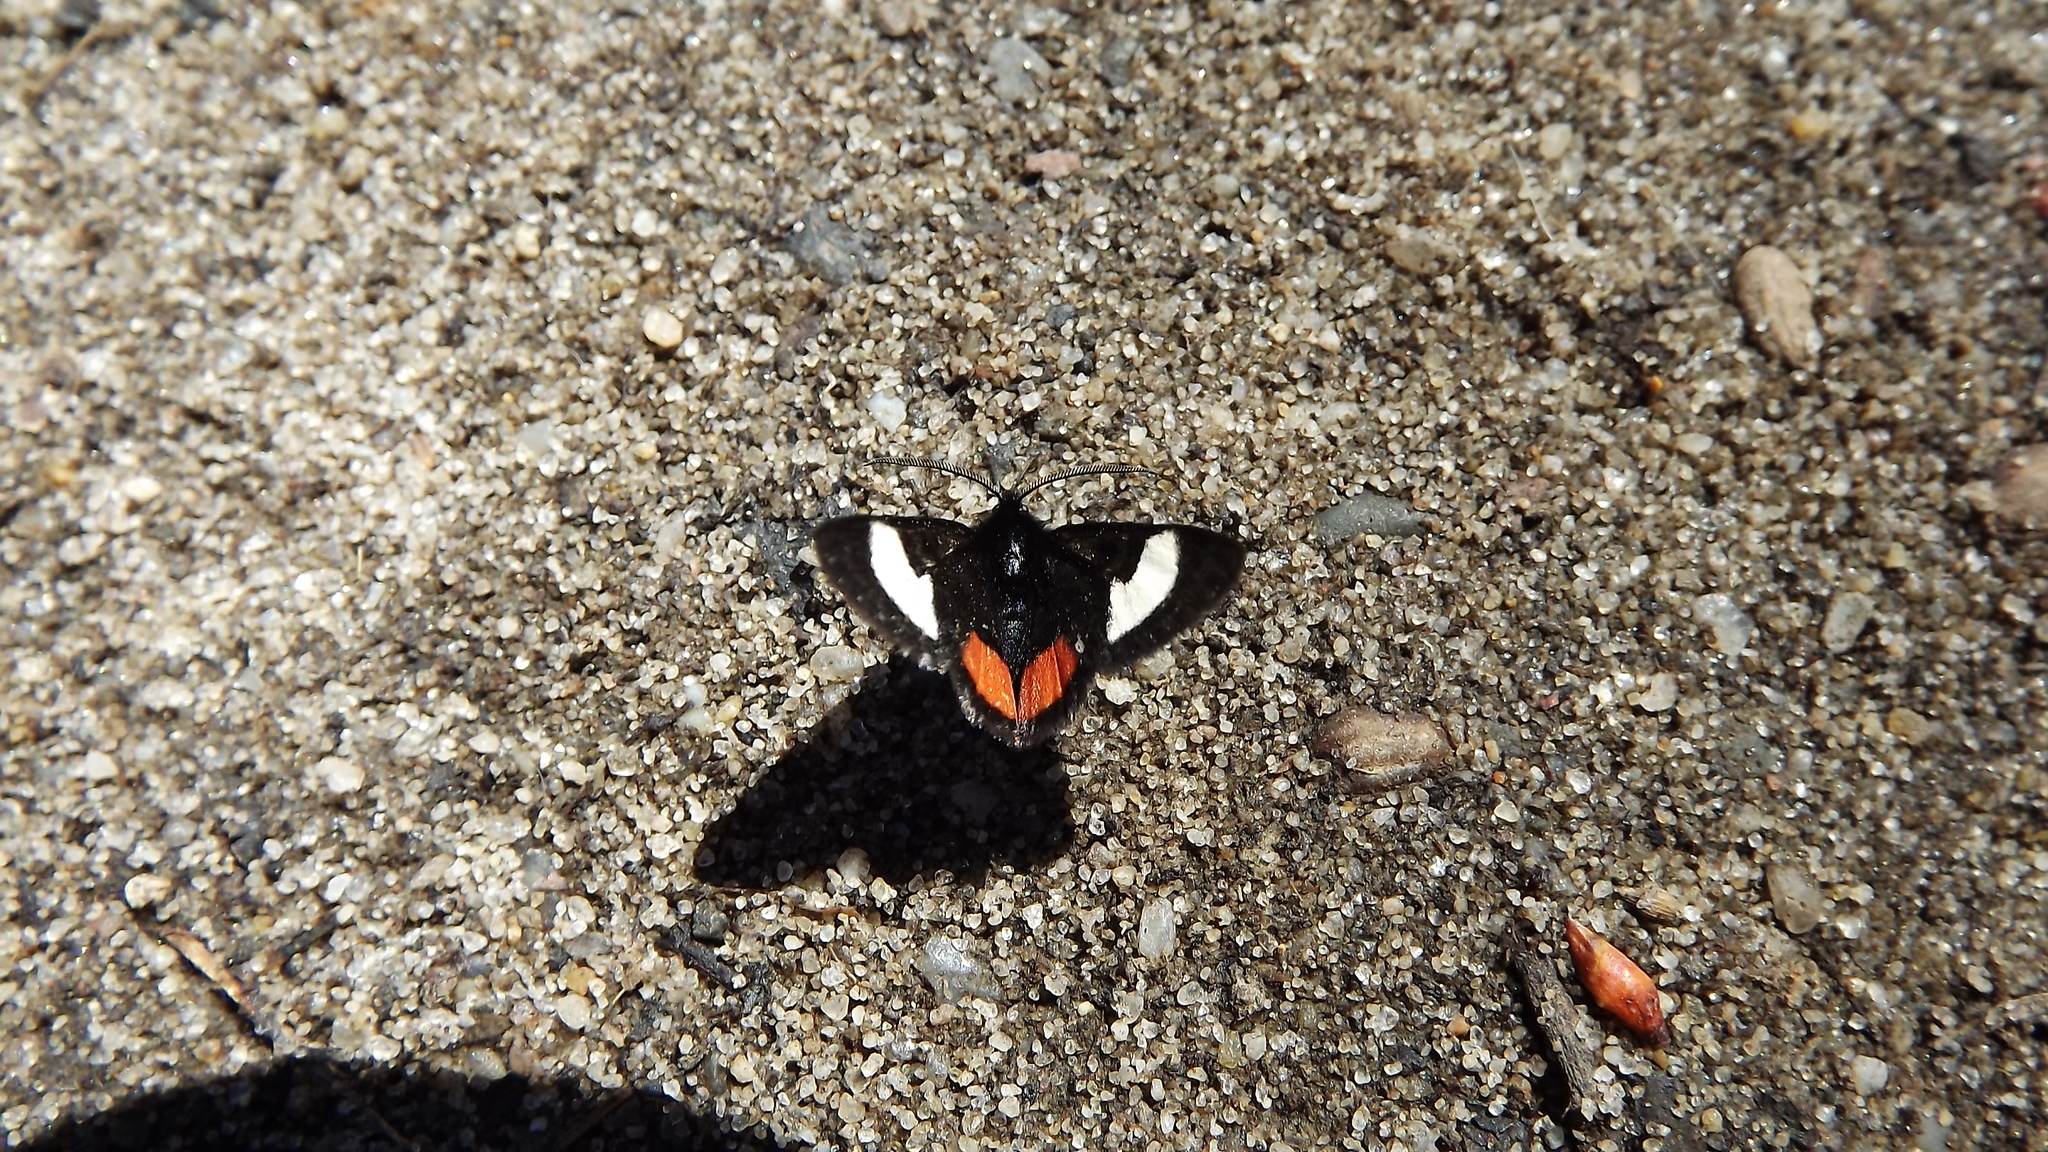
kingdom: Animalia
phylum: Arthropoda
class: Insecta
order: Lepidoptera
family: Noctuidae
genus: Psychomorpha
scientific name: Psychomorpha epimenis
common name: Grapevine epimenis moth
